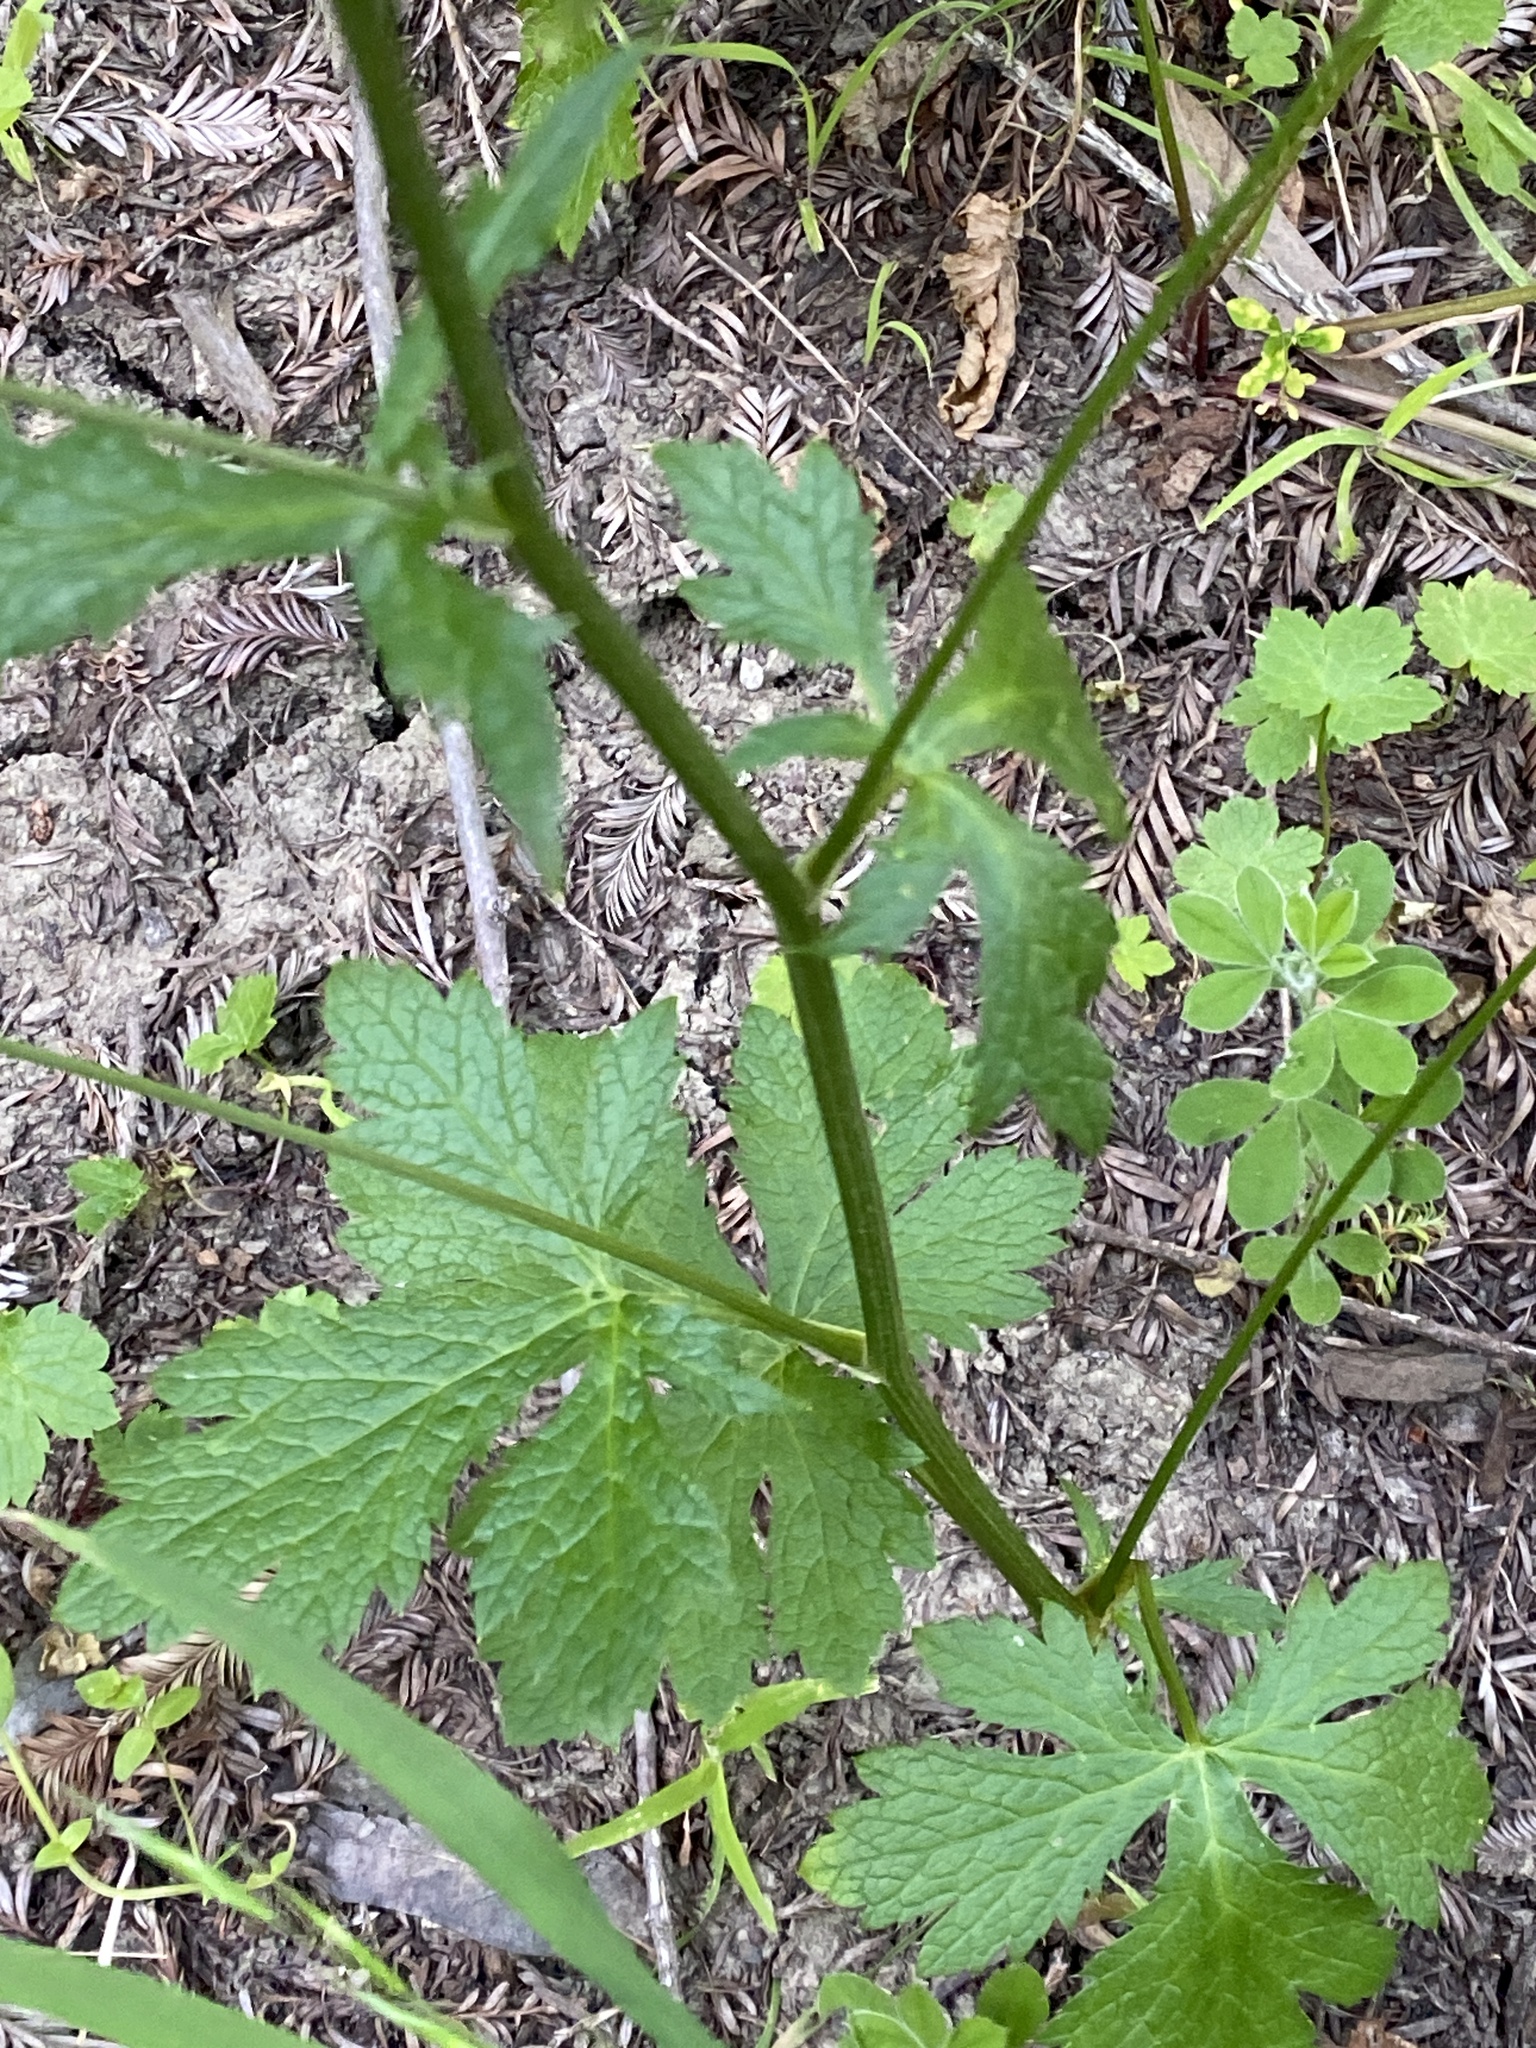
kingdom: Plantae
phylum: Tracheophyta
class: Magnoliopsida
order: Apiales
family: Apiaceae
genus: Sanicula
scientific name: Sanicula crassicaulis
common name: Western snakeroot
